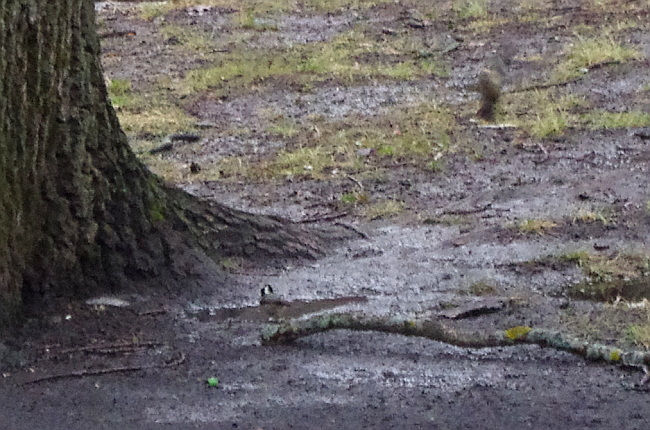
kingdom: Animalia
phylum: Chordata
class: Aves
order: Passeriformes
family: Paridae
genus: Periparus
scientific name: Periparus ater
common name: Coal tit
